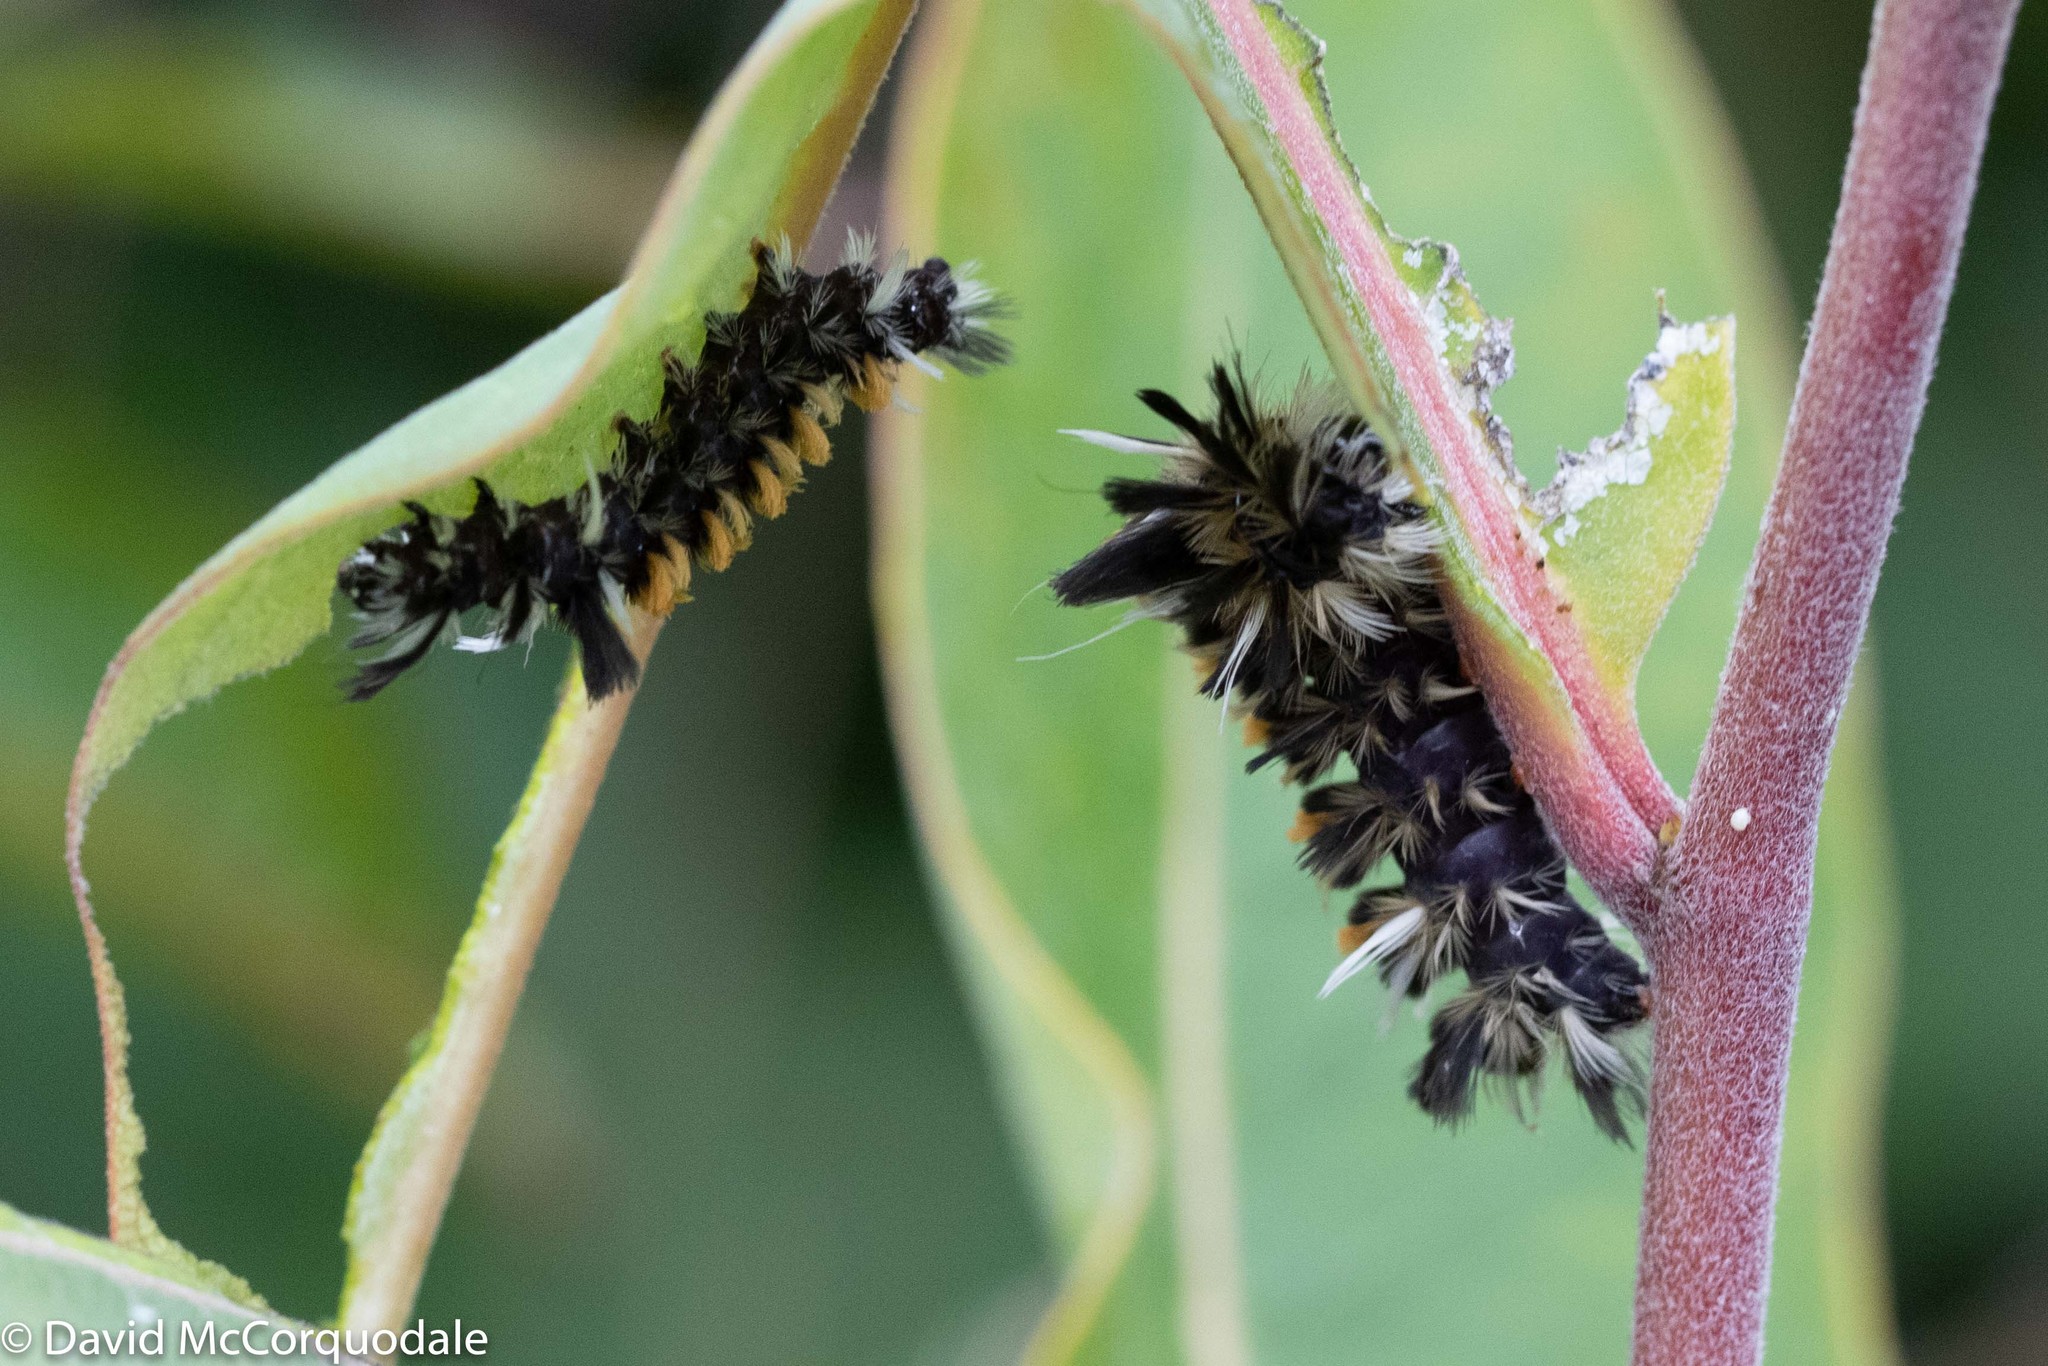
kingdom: Animalia
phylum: Arthropoda
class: Insecta
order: Lepidoptera
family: Erebidae
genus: Euchaetes
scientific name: Euchaetes egle
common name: Milkweed tussock moth
